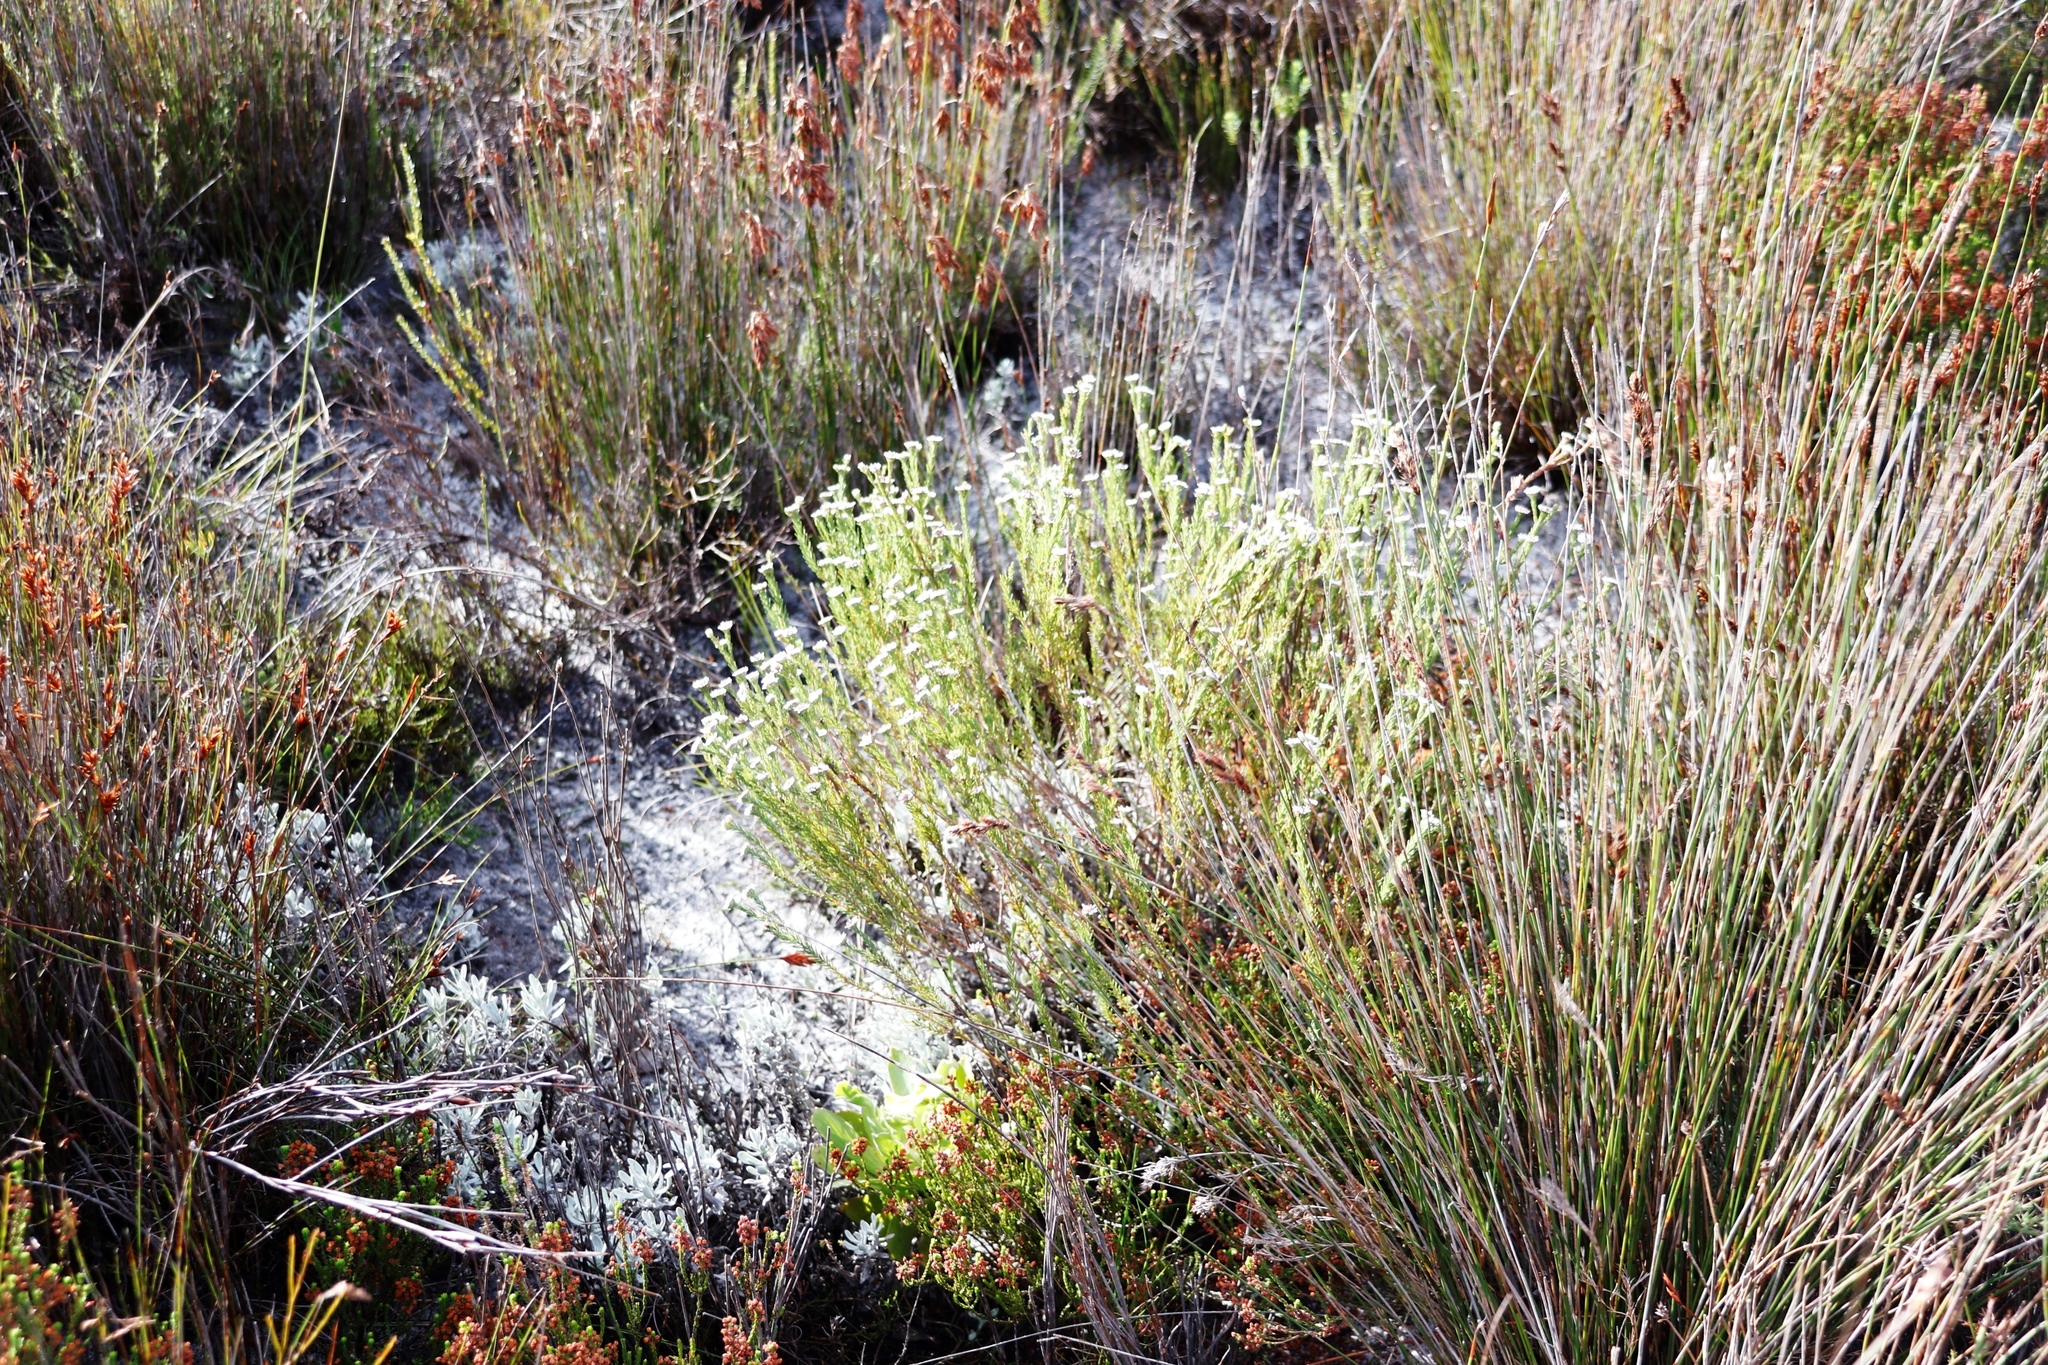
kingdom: Plantae
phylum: Tracheophyta
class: Magnoliopsida
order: Bruniales
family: Bruniaceae
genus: Staavia
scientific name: Staavia radiata
